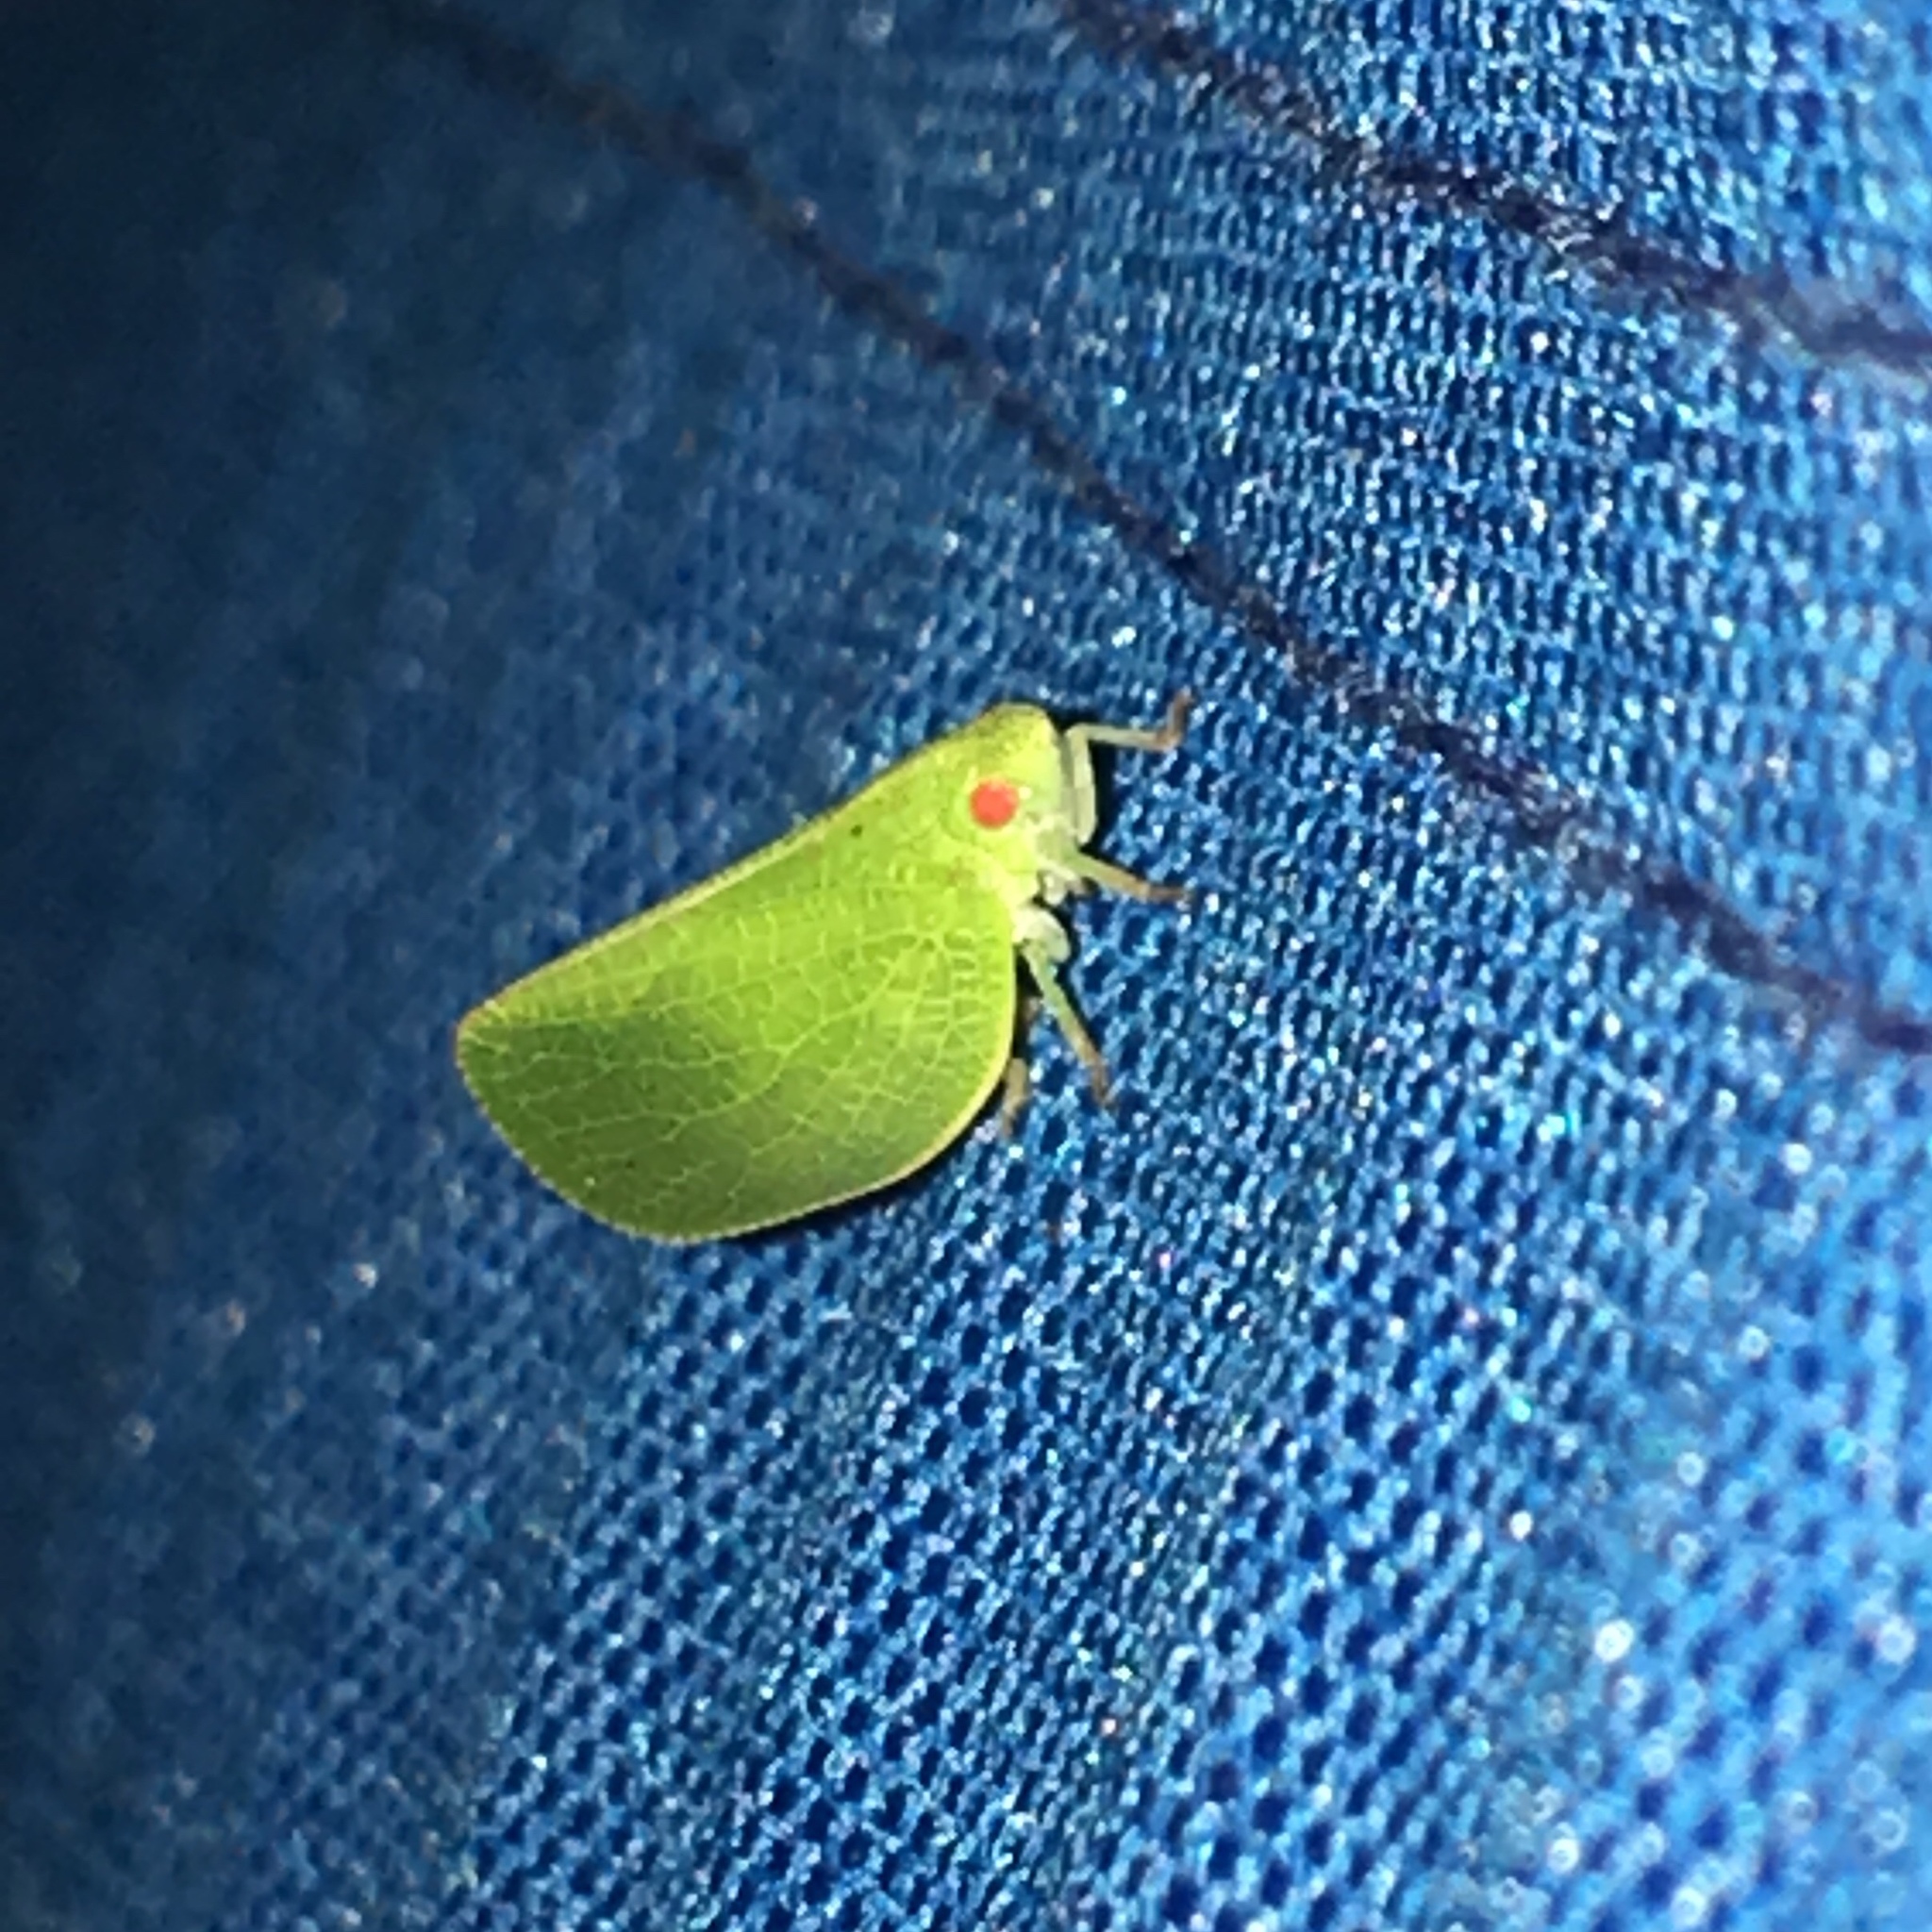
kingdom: Animalia
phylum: Arthropoda
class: Insecta
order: Hemiptera
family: Acanaloniidae
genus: Acanalonia
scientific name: Acanalonia conica
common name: Green cone-headed planthopper
